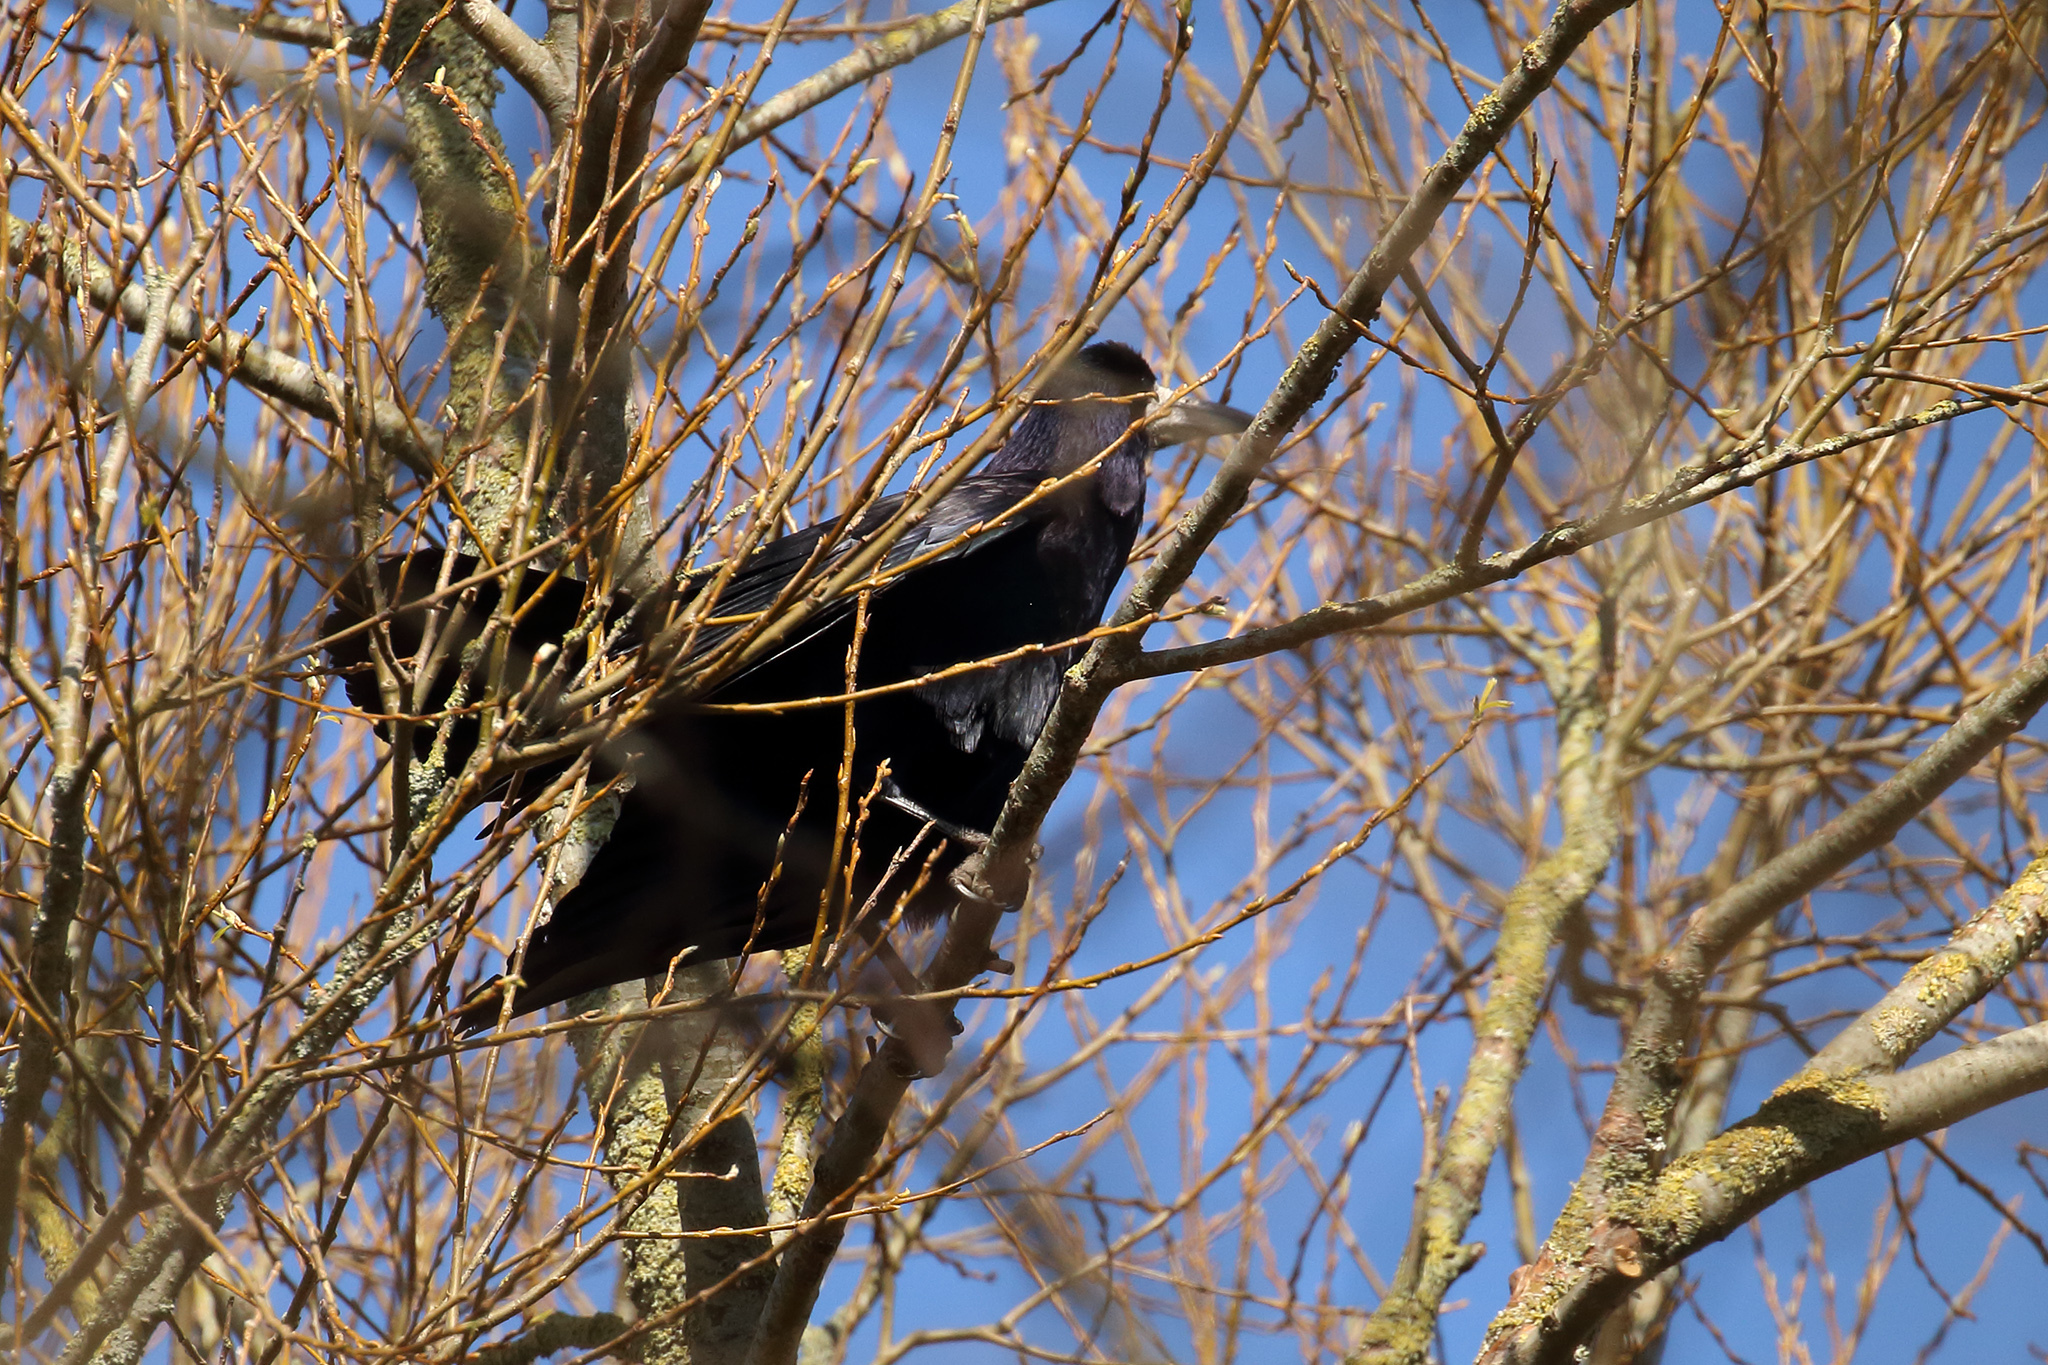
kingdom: Animalia
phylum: Chordata
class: Aves
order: Passeriformes
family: Corvidae
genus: Corvus
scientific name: Corvus frugilegus
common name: Rook
